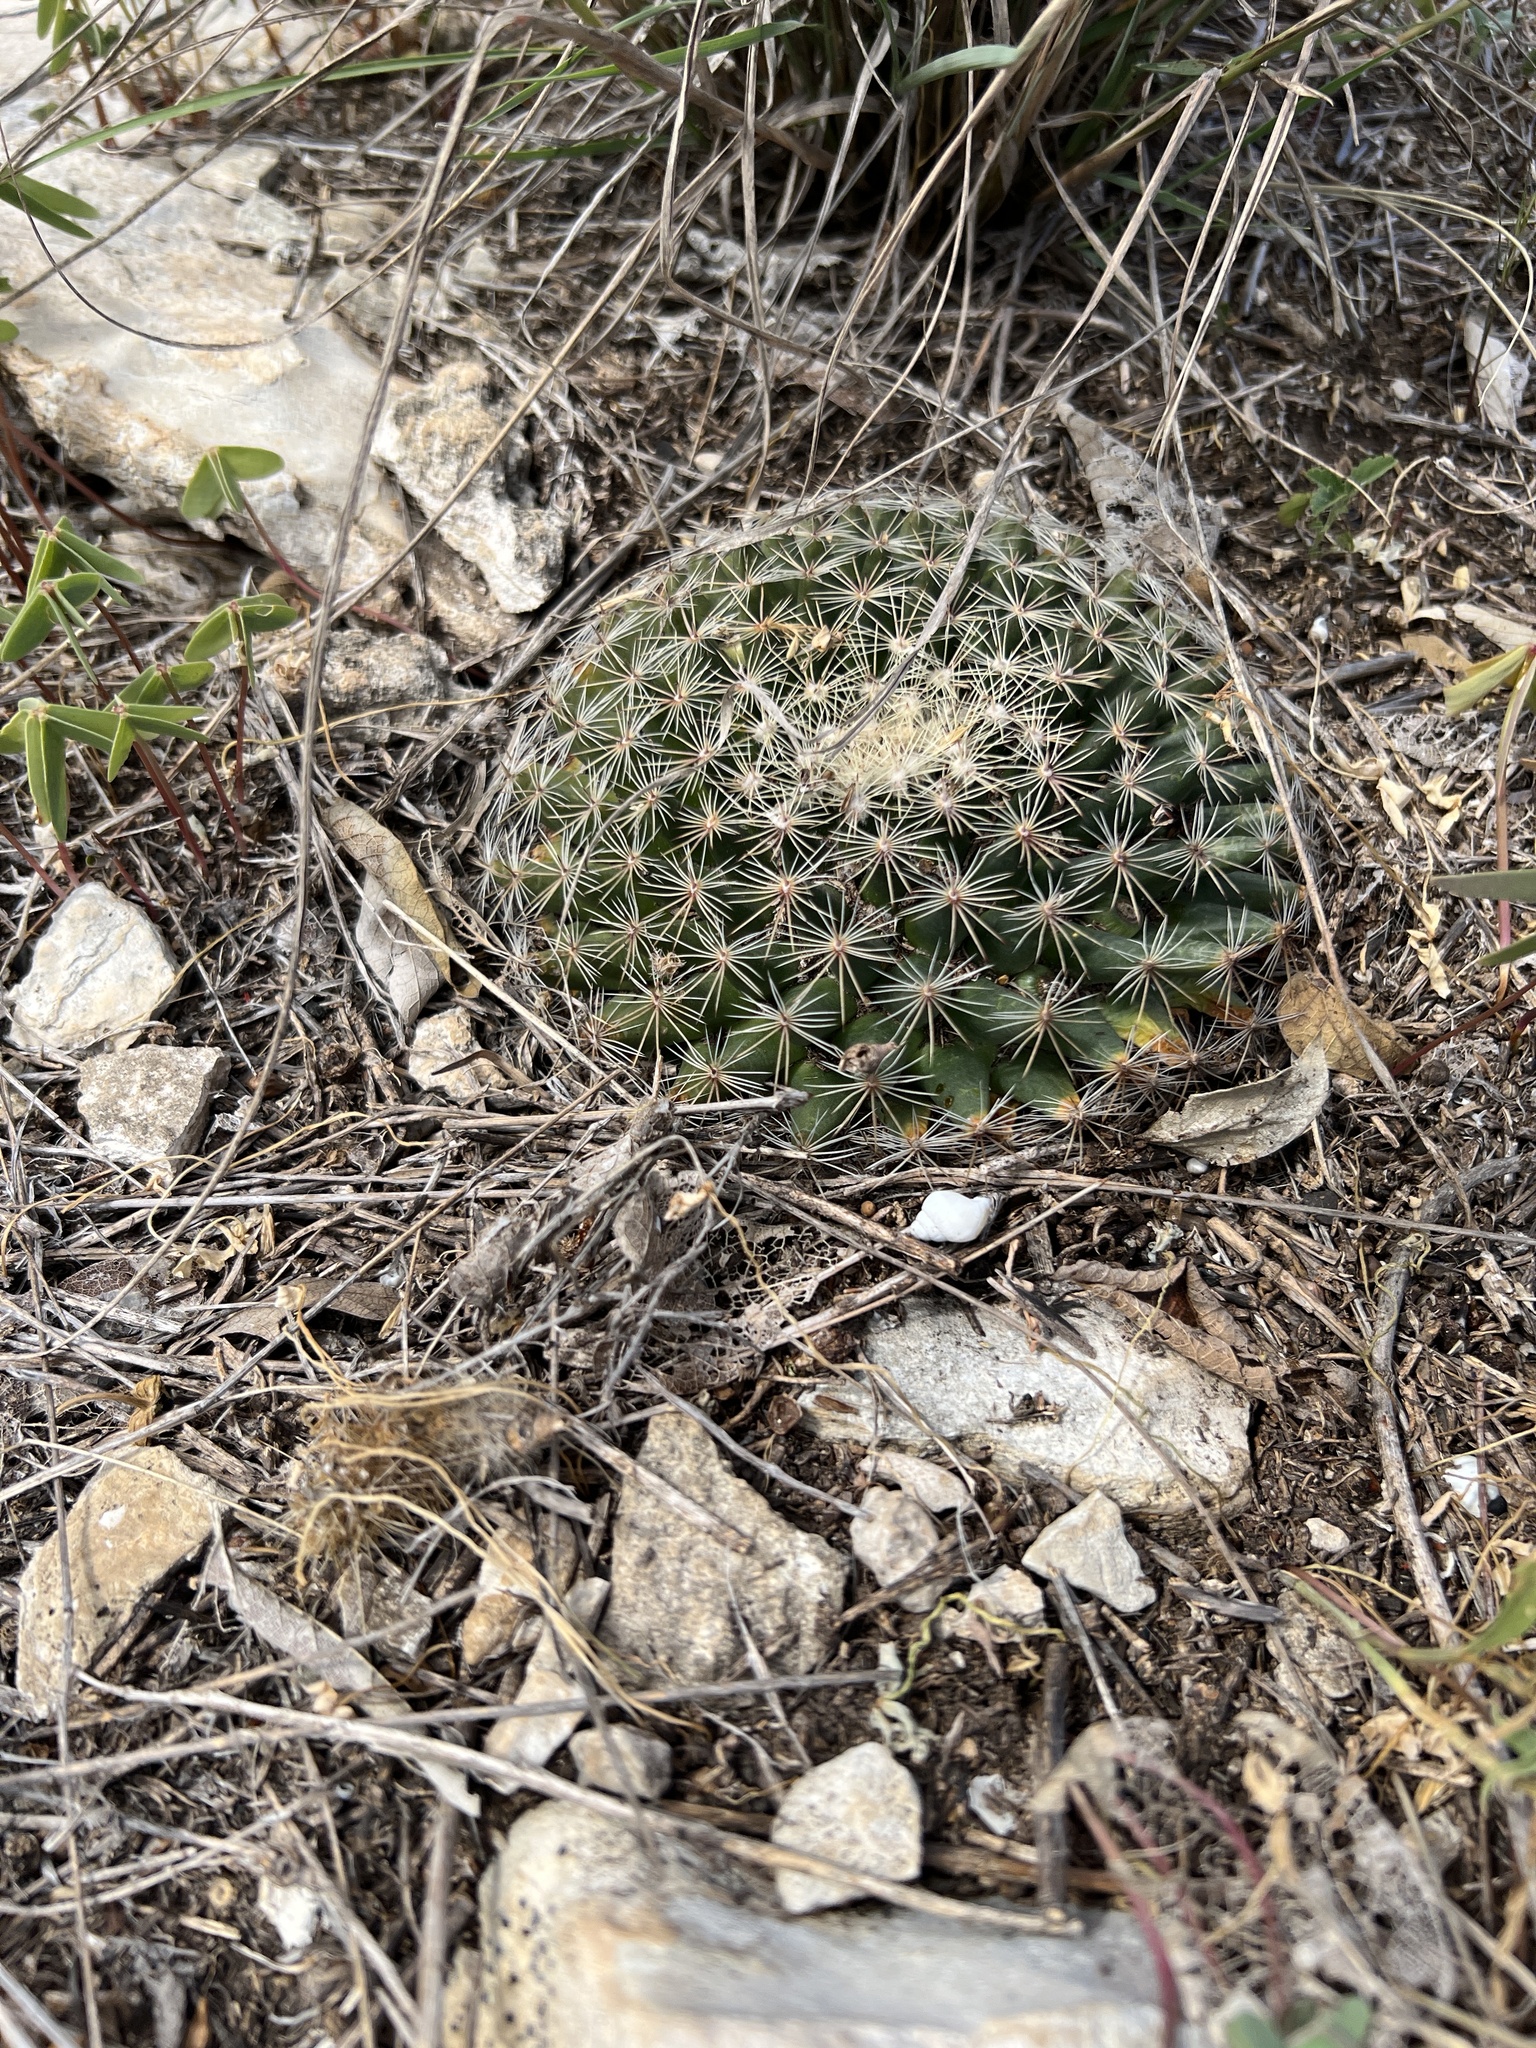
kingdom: Plantae
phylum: Tracheophyta
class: Magnoliopsida
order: Caryophyllales
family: Cactaceae
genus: Mammillaria
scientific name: Mammillaria heyderi
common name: Little nipple cactus
